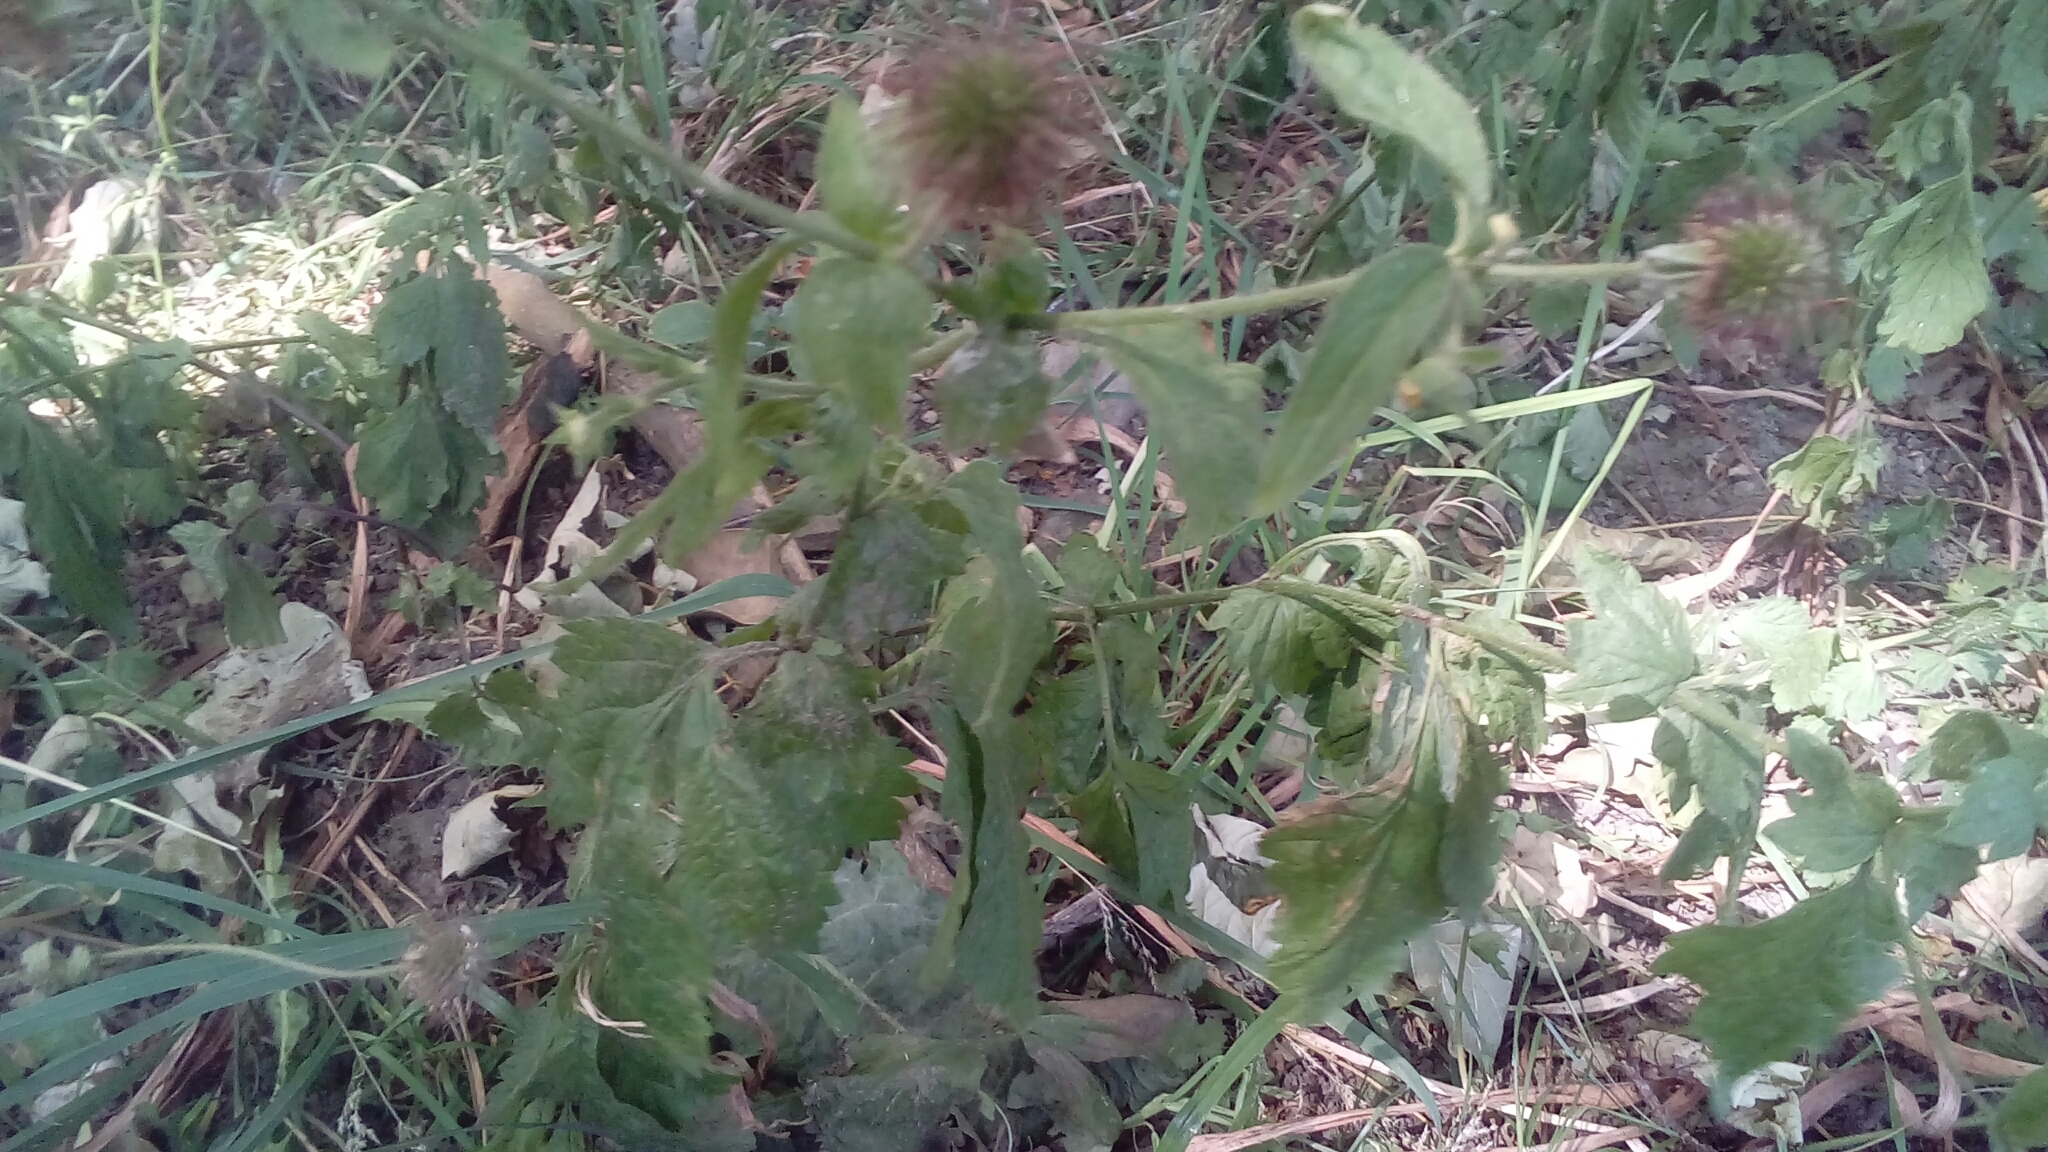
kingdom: Plantae
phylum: Tracheophyta
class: Magnoliopsida
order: Rosales
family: Rosaceae
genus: Geum
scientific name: Geum urbanum
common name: Wood avens
